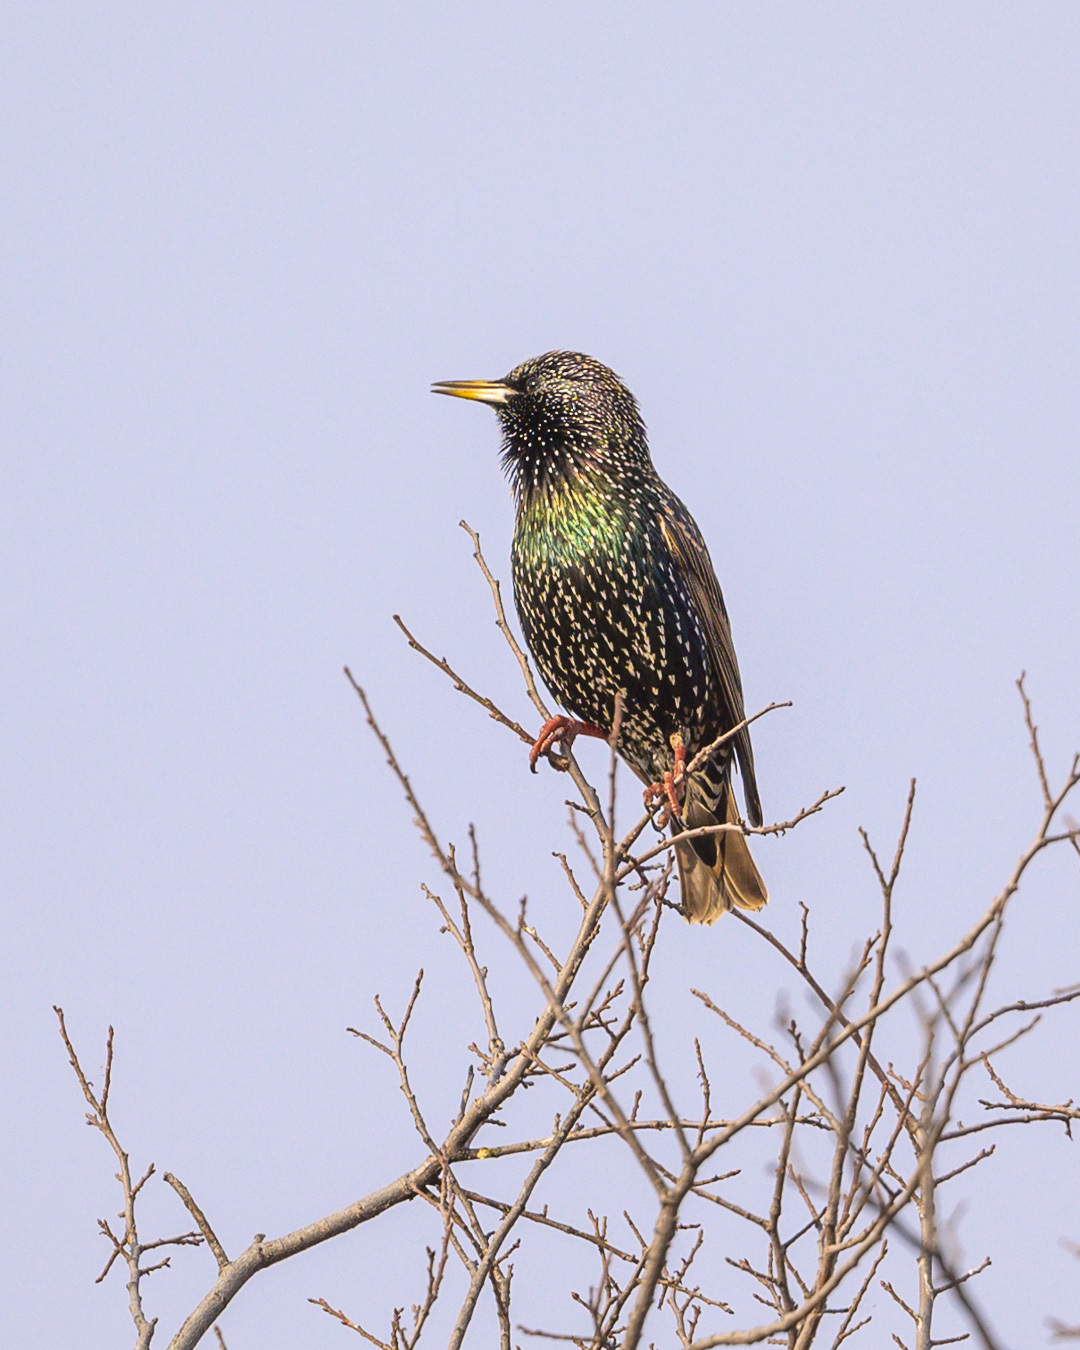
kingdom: Animalia
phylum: Chordata
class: Aves
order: Passeriformes
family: Sturnidae
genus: Sturnus
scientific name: Sturnus vulgaris
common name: Common starling
